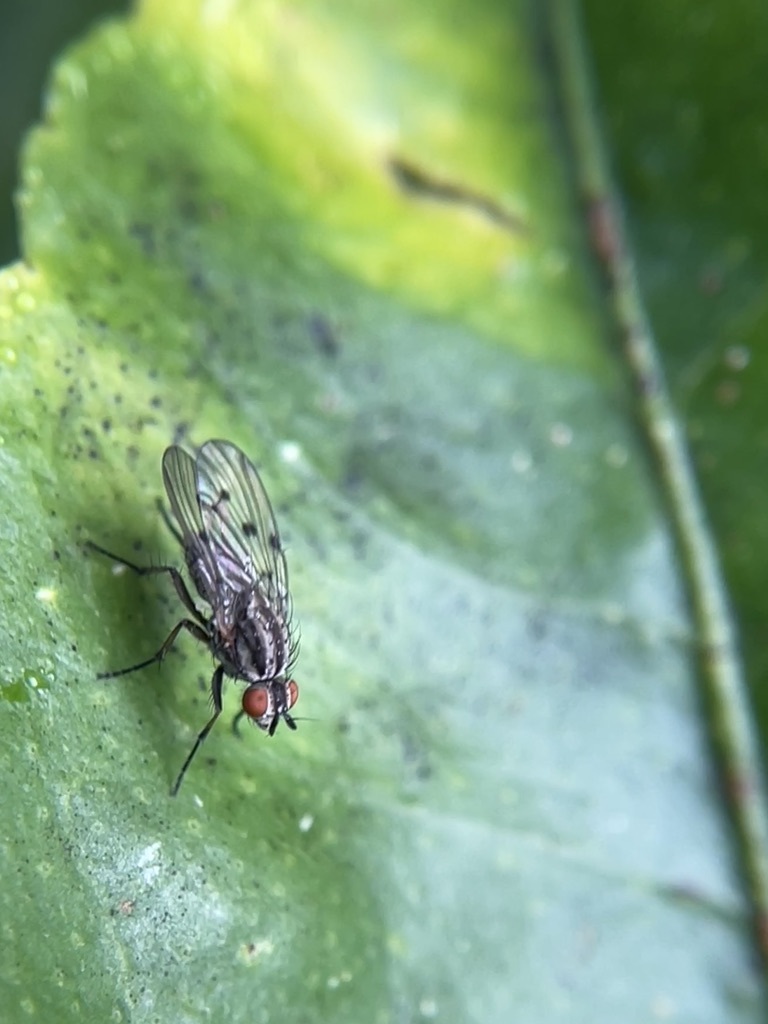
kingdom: Animalia
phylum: Arthropoda
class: Insecta
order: Diptera
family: Anthomyiidae
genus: Anthomyia
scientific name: Anthomyia punctipennis
